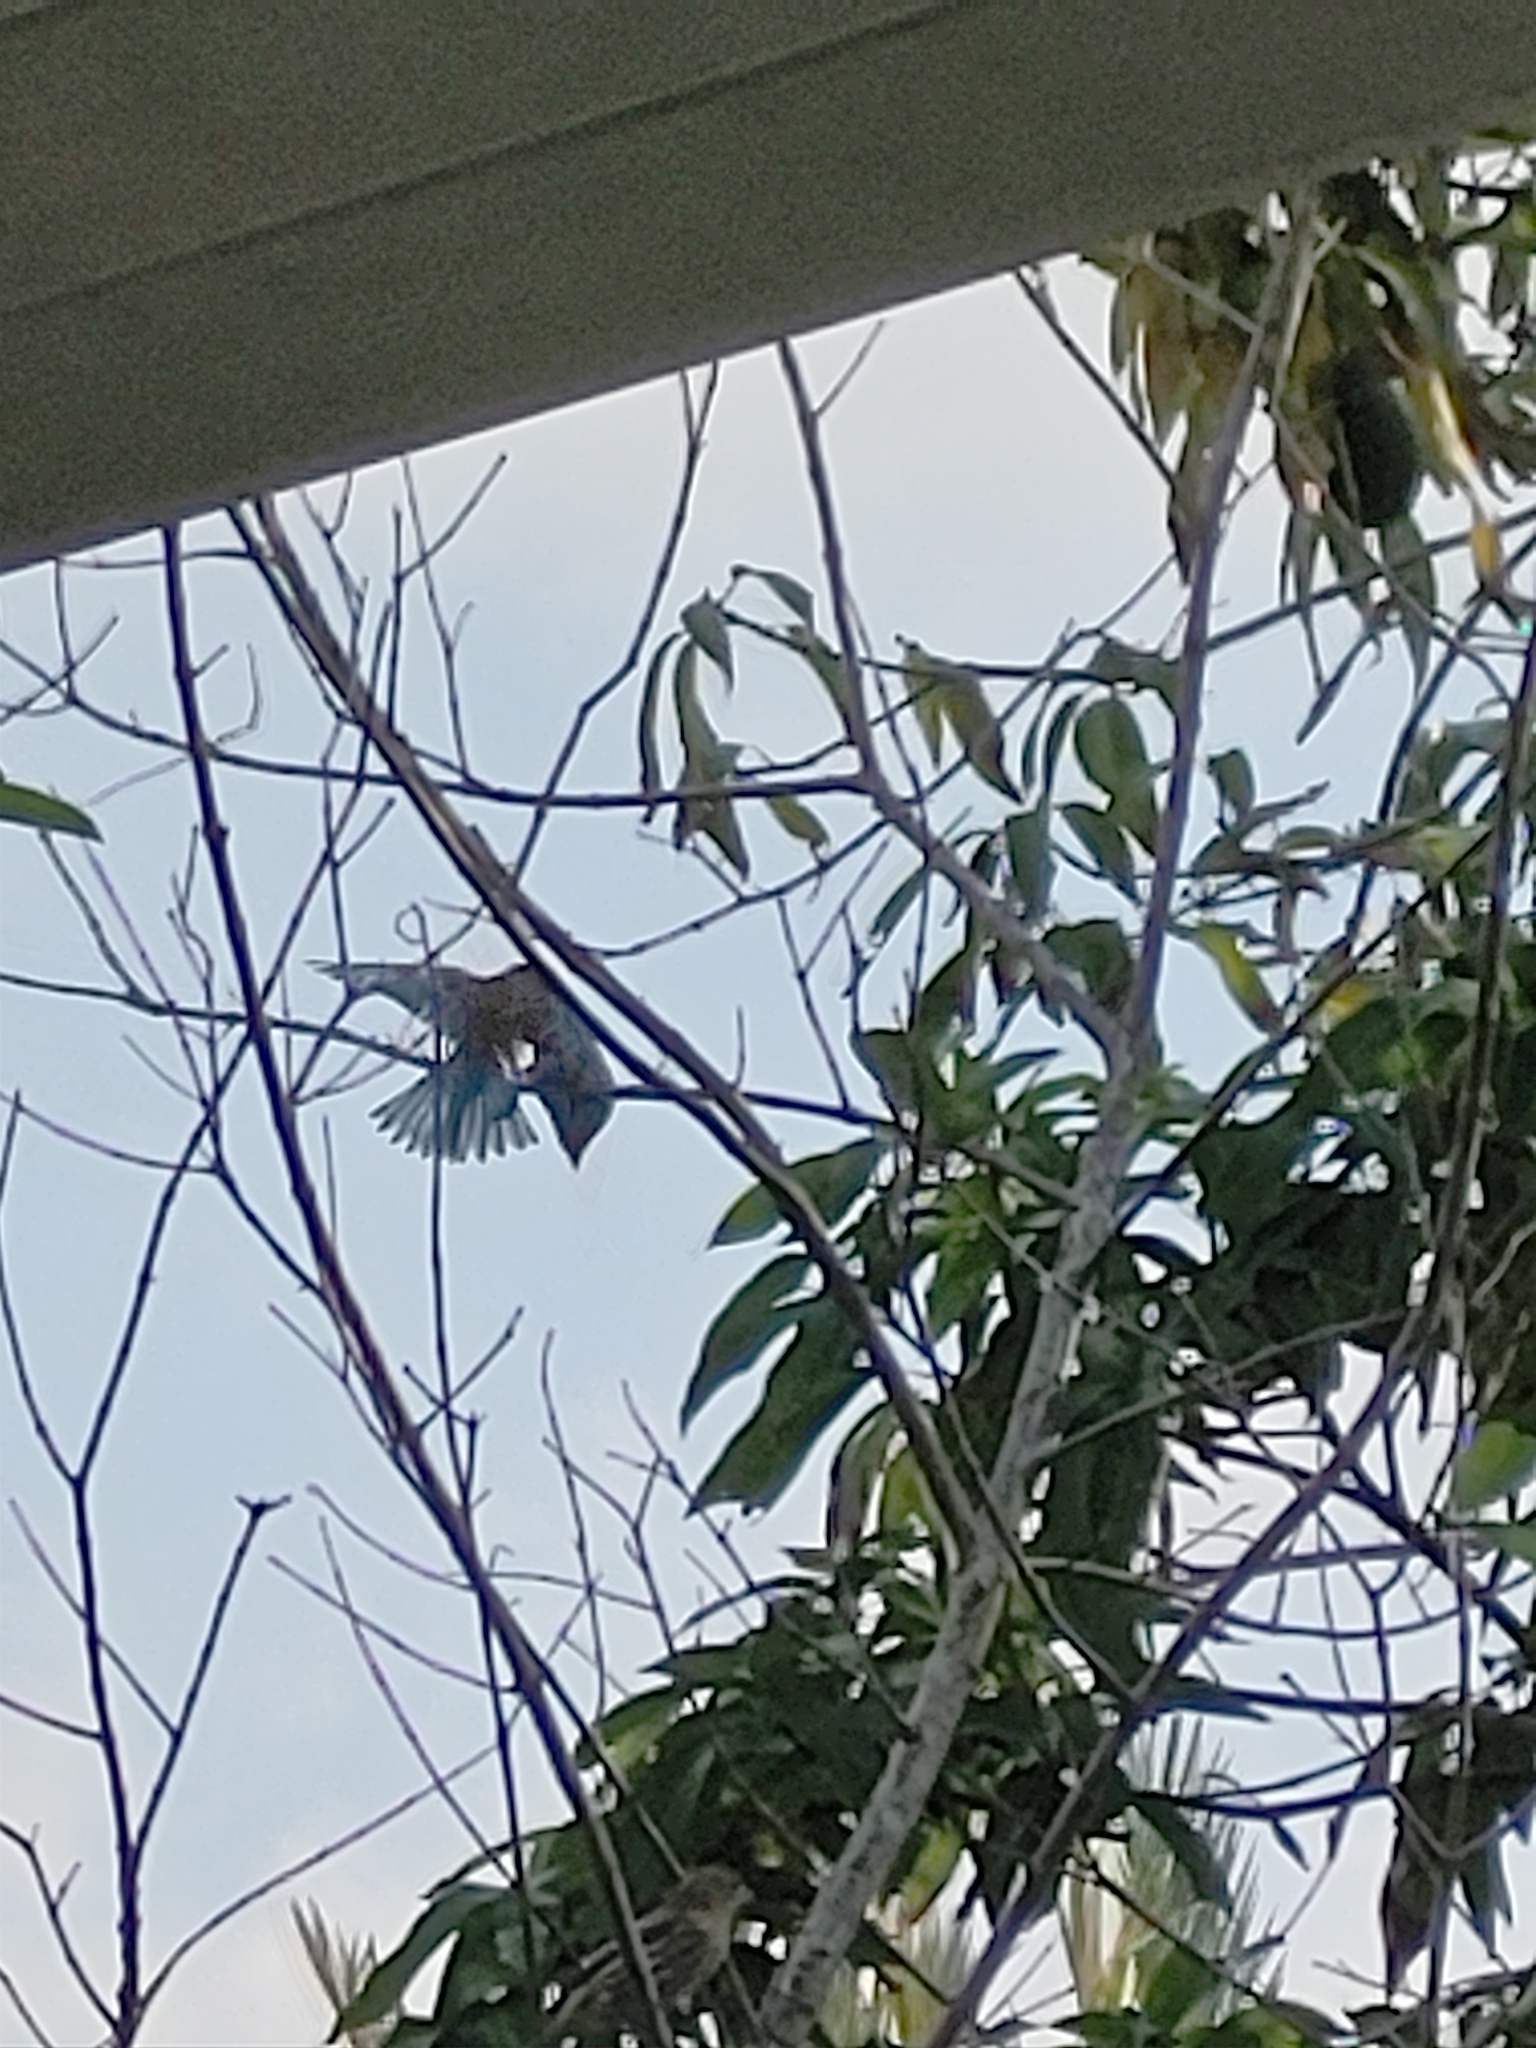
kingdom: Animalia
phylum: Chordata
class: Aves
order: Passeriformes
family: Fringillidae
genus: Haemorhous
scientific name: Haemorhous mexicanus
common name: House finch
